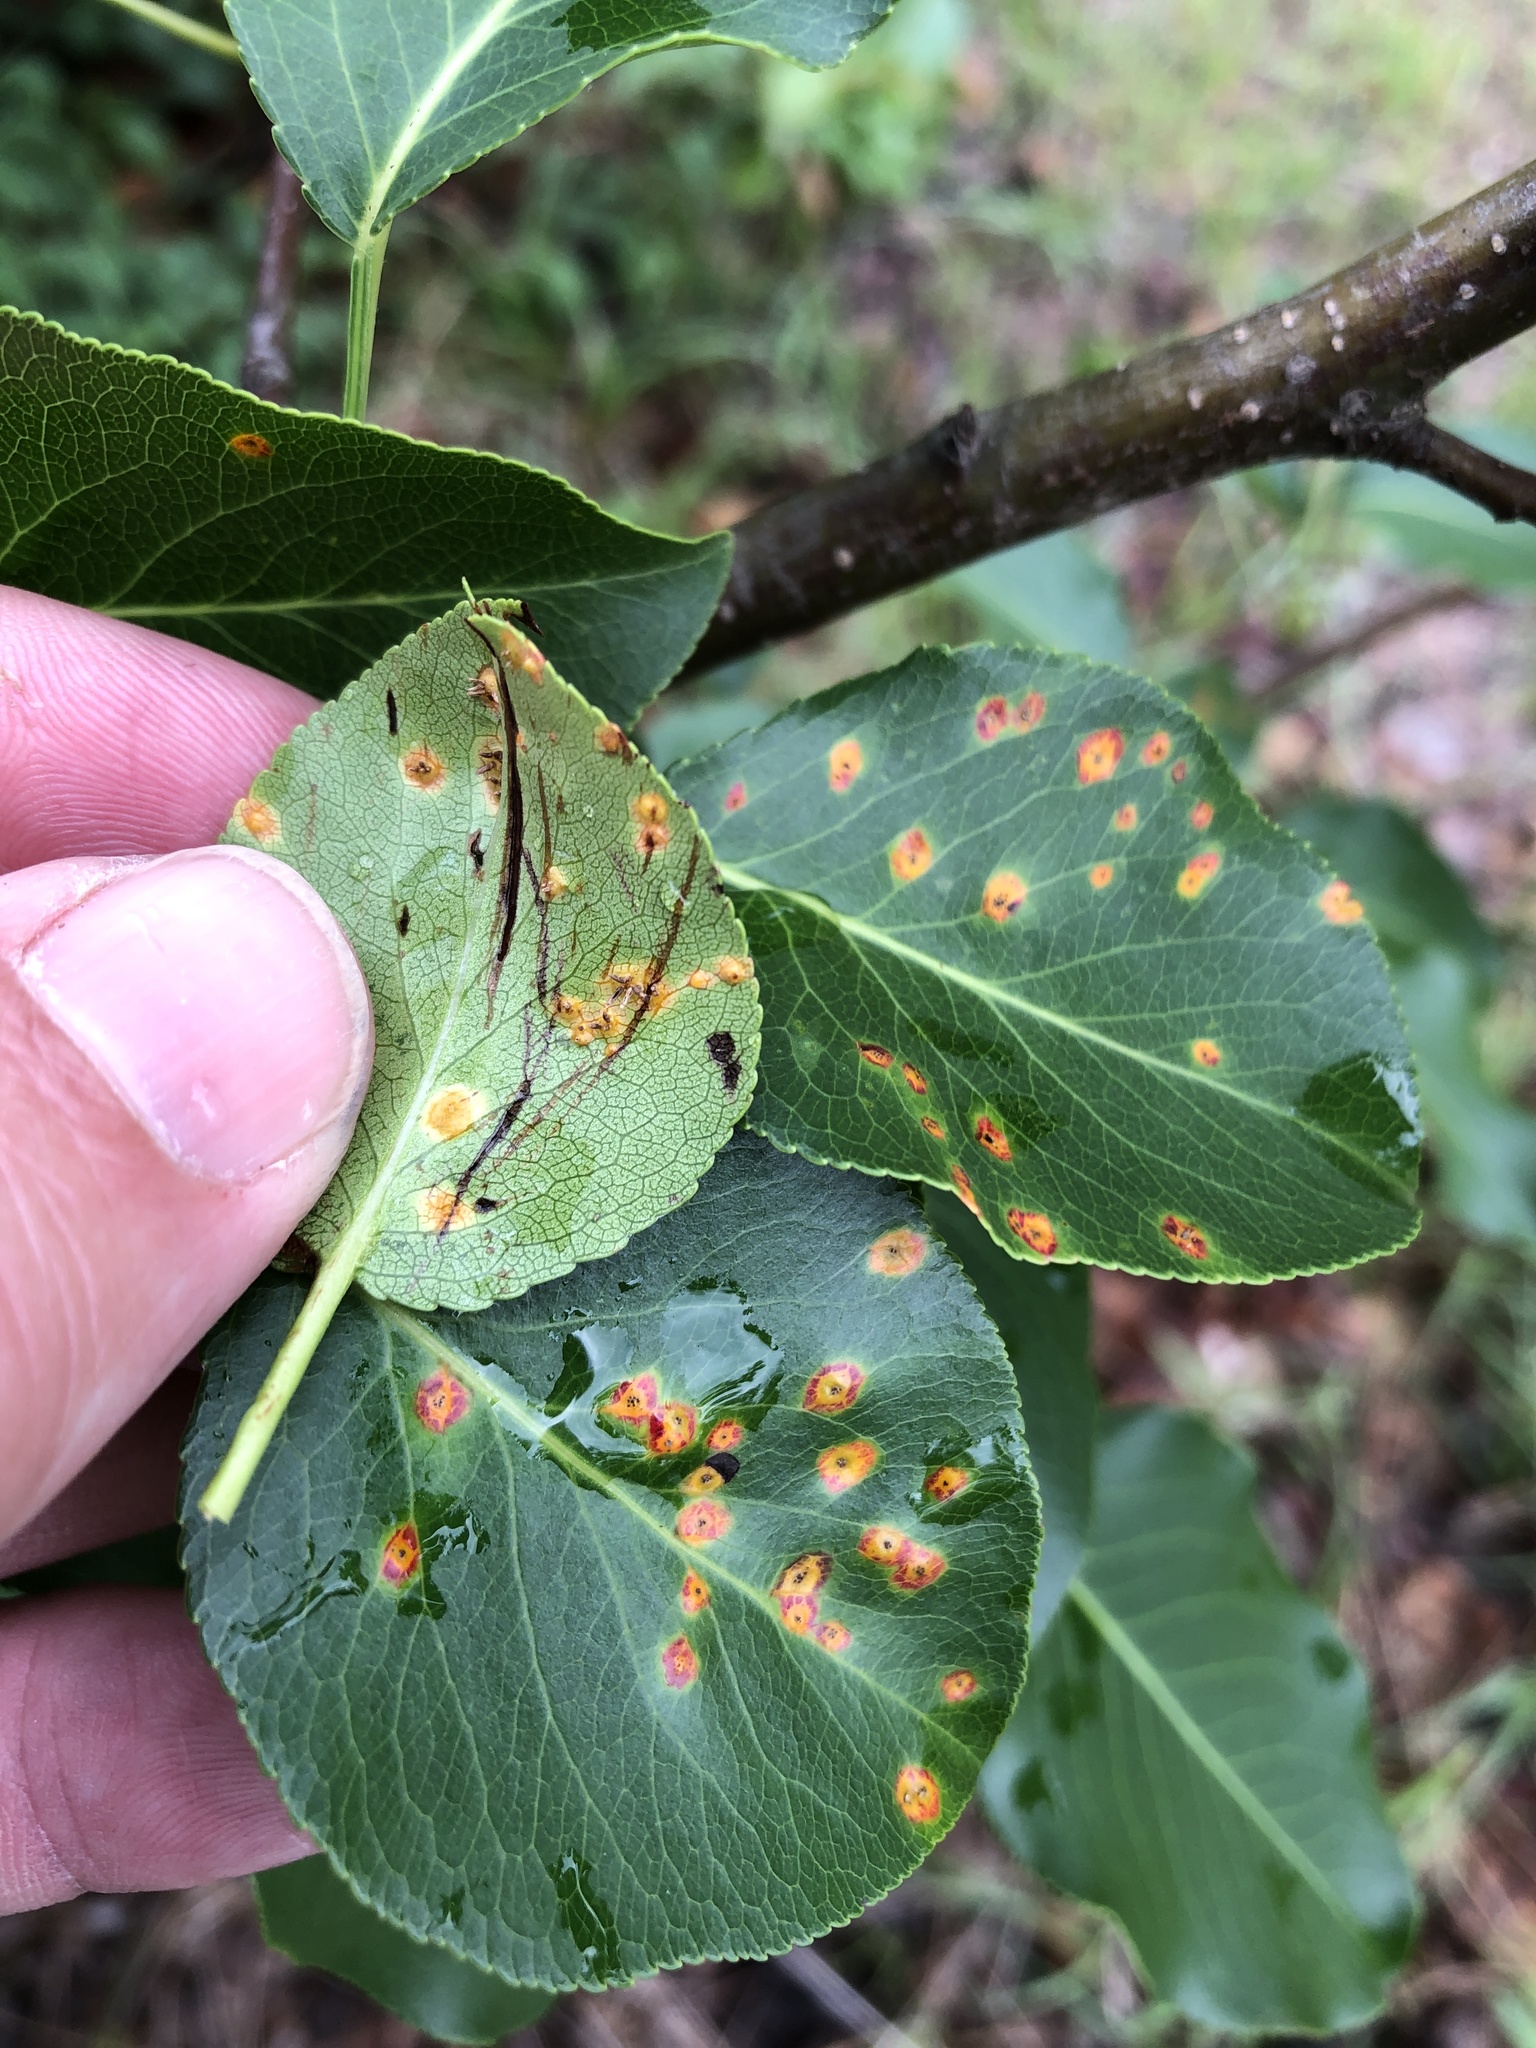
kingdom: Fungi
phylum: Basidiomycota
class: Pucciniomycetes
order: Pucciniales
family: Gymnosporangiaceae
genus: Gymnosporangium
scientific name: Gymnosporangium sabinae
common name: Pear trellis rust fungus
